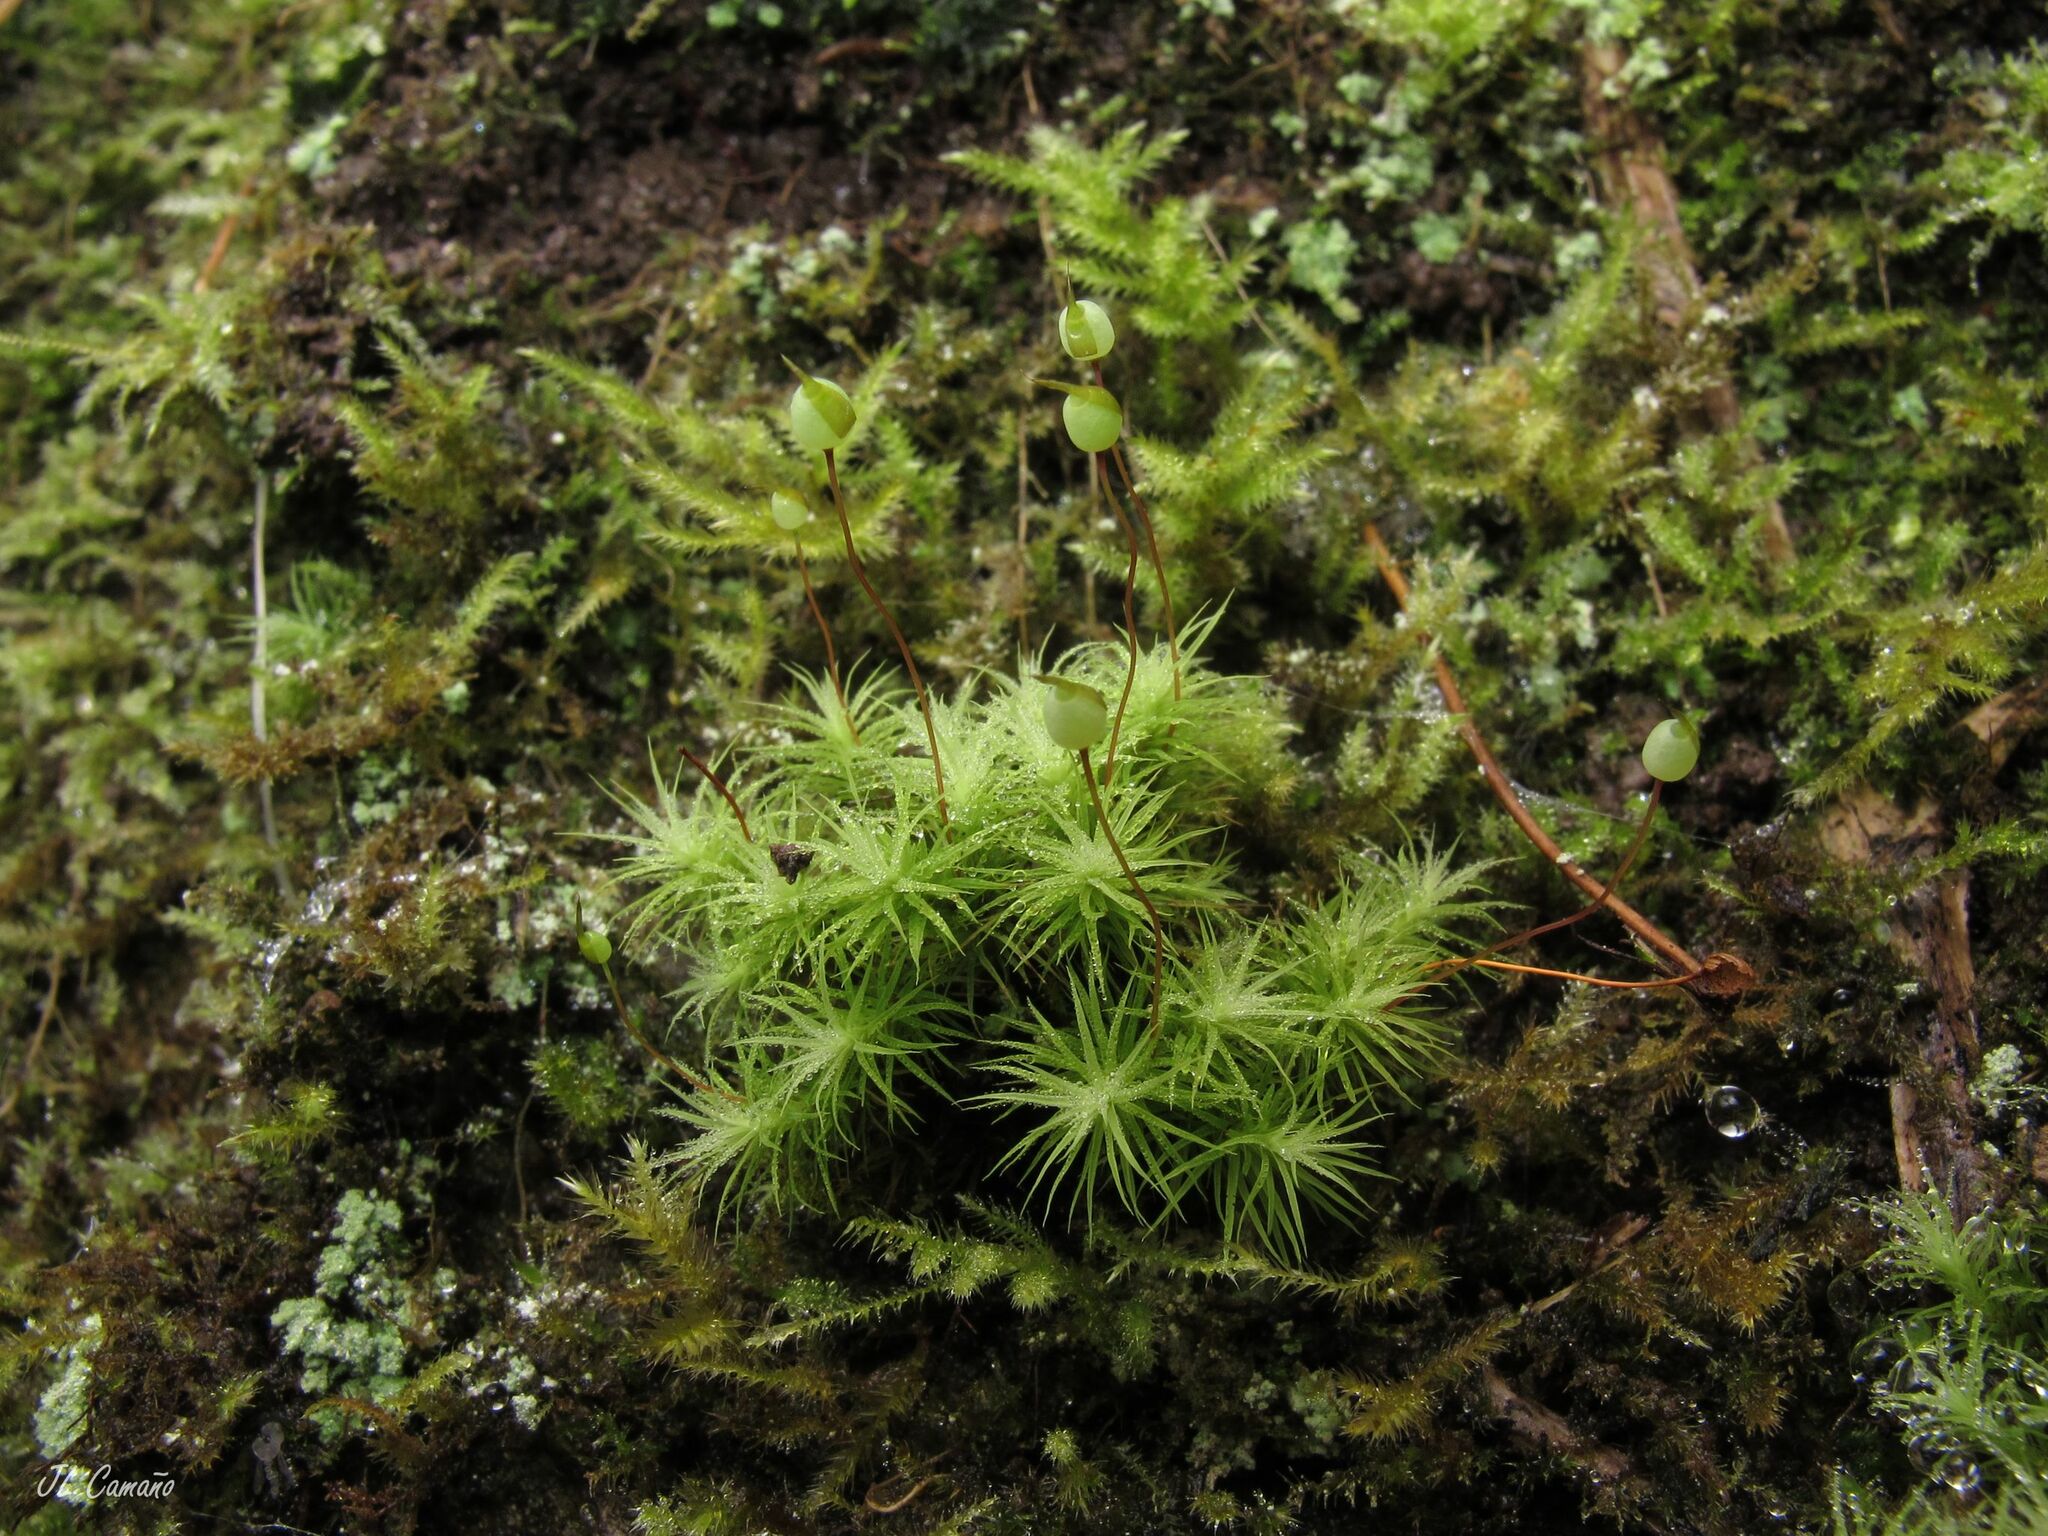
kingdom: Plantae
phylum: Bryophyta
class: Bryopsida
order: Bartramiales
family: Bartramiaceae
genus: Bartramia
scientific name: Bartramia ithyphylla
